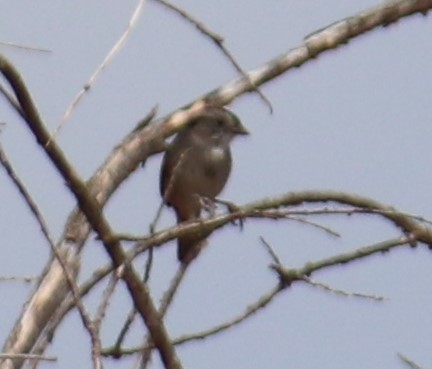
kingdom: Animalia
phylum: Chordata
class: Aves
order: Passeriformes
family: Passerellidae
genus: Melospiza
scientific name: Melospiza georgiana
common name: Swamp sparrow
